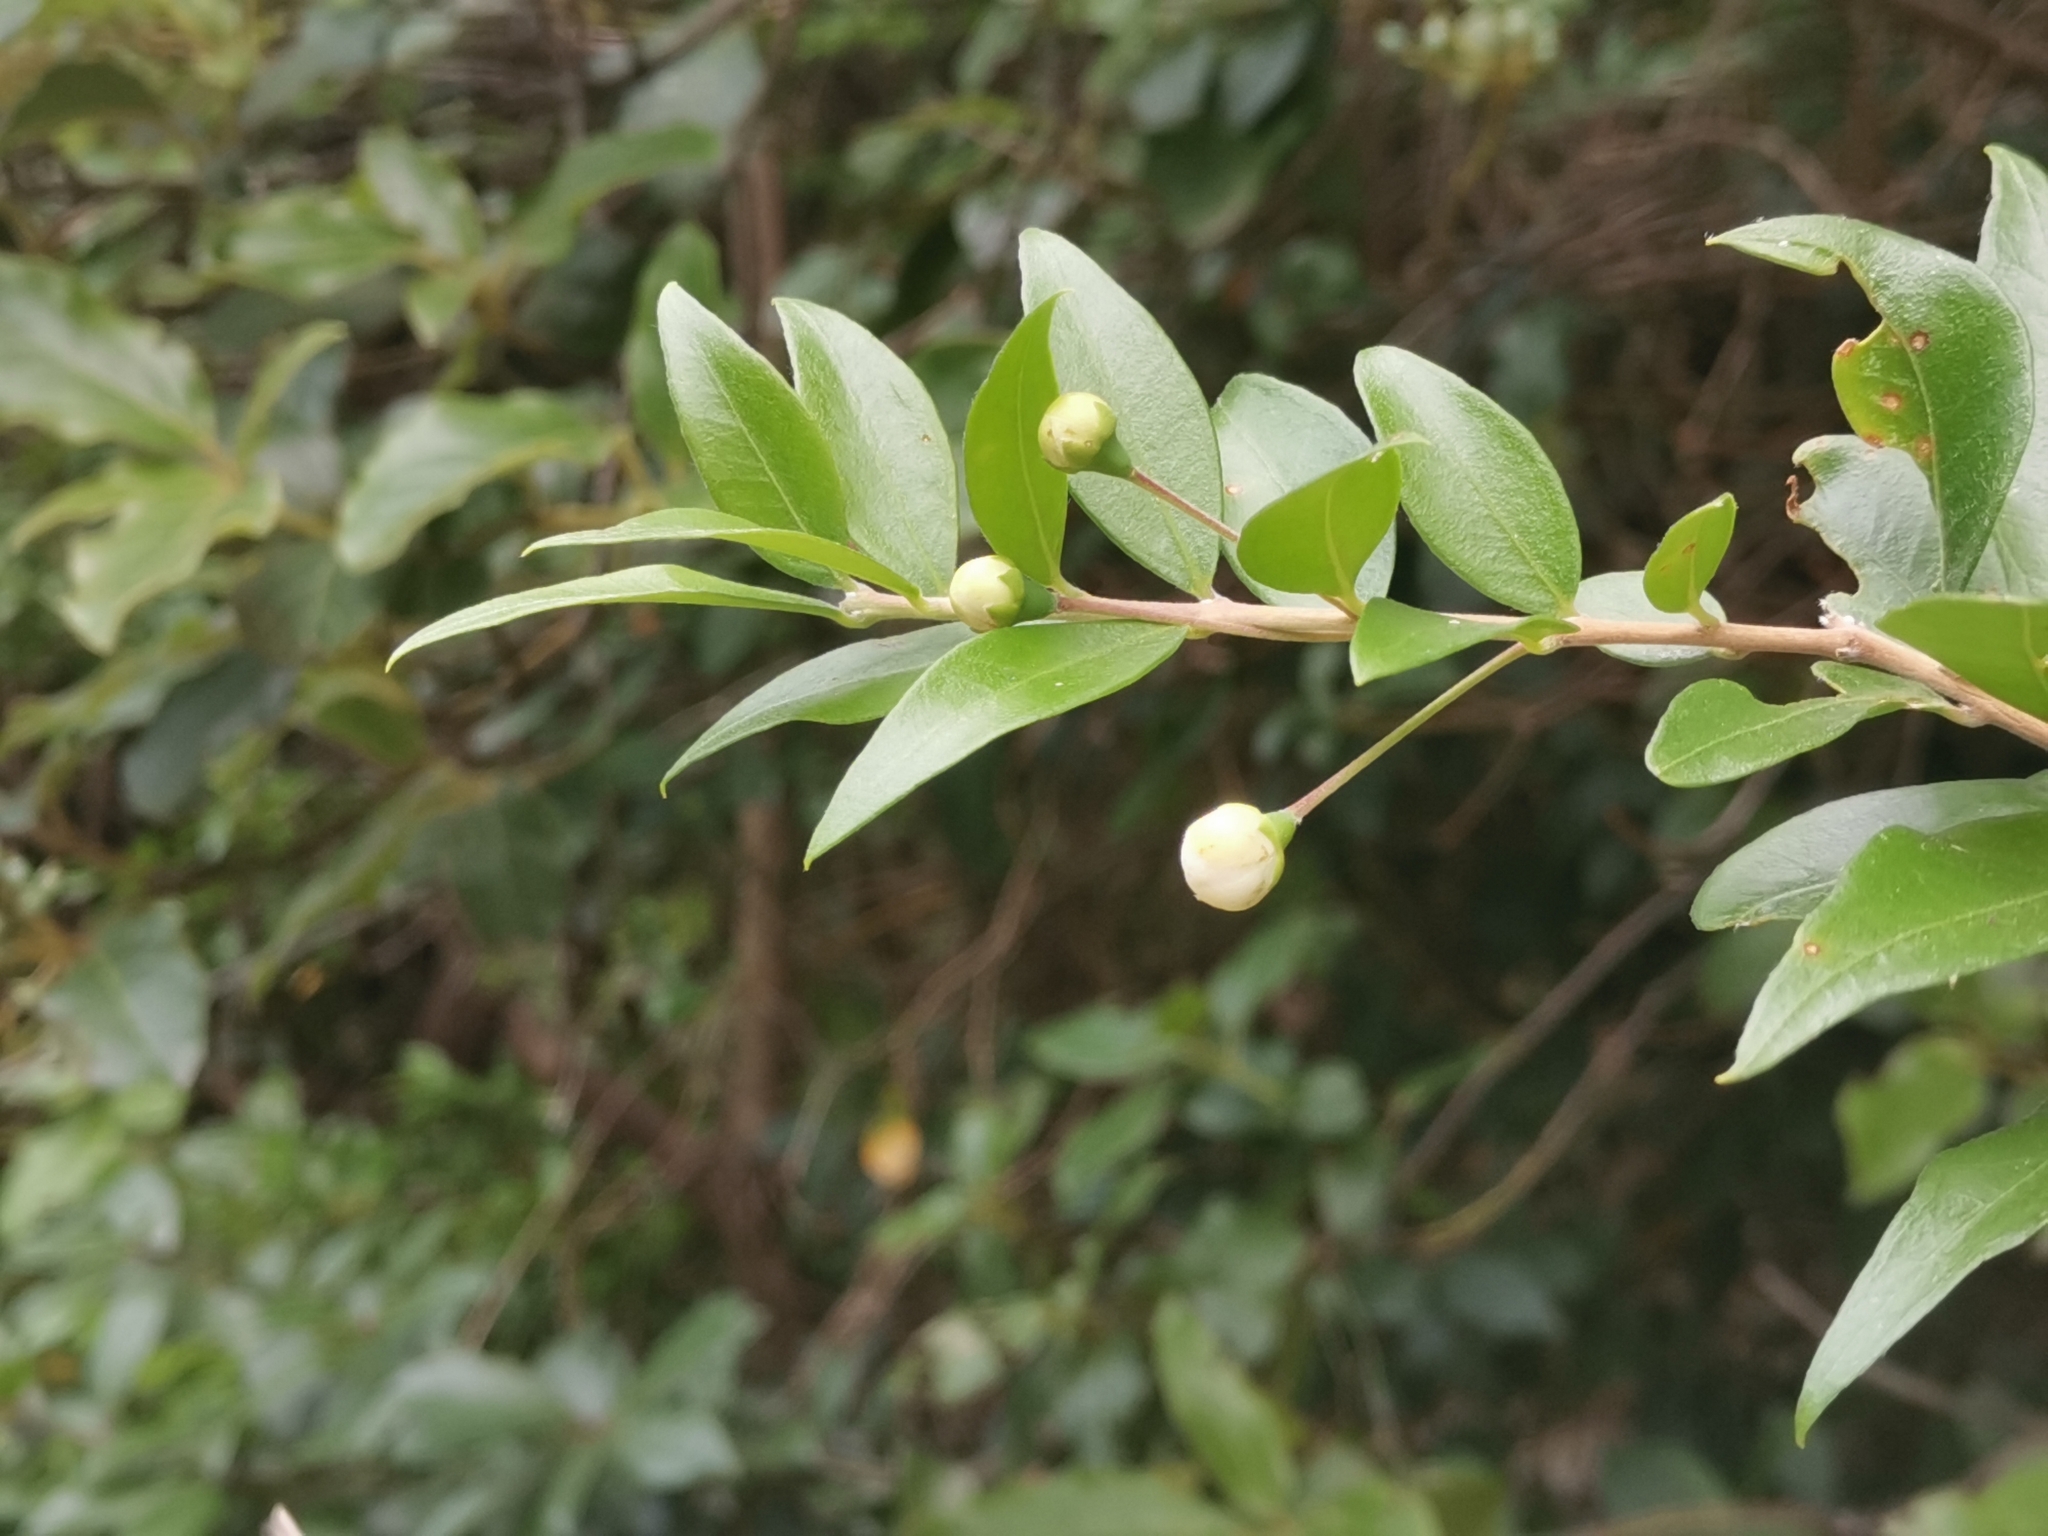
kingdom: Plantae
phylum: Tracheophyta
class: Magnoliopsida
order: Myrtales
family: Myrtaceae
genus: Myrtus
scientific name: Myrtus communis
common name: Myrtle
